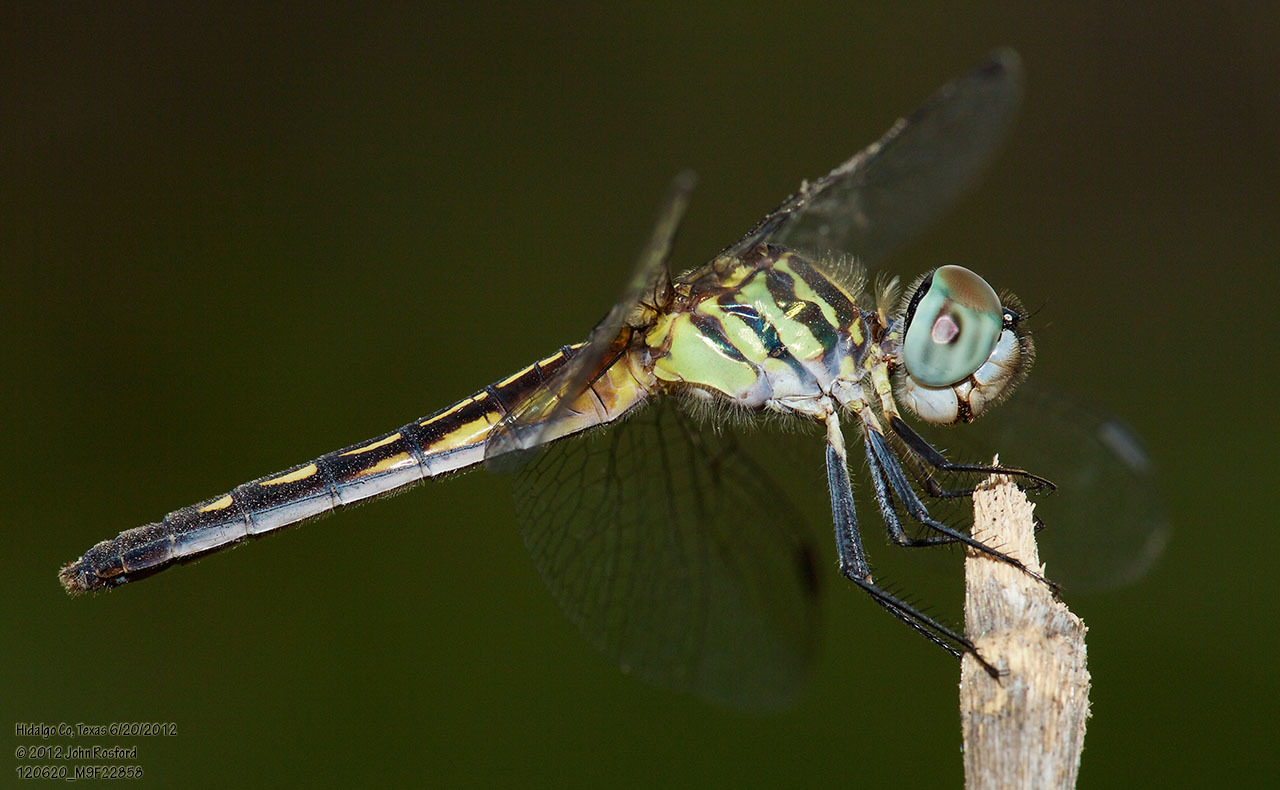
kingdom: Animalia
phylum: Arthropoda
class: Insecta
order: Odonata
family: Libellulidae
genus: Pachydiplax
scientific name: Pachydiplax longipennis
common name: Blue dasher
